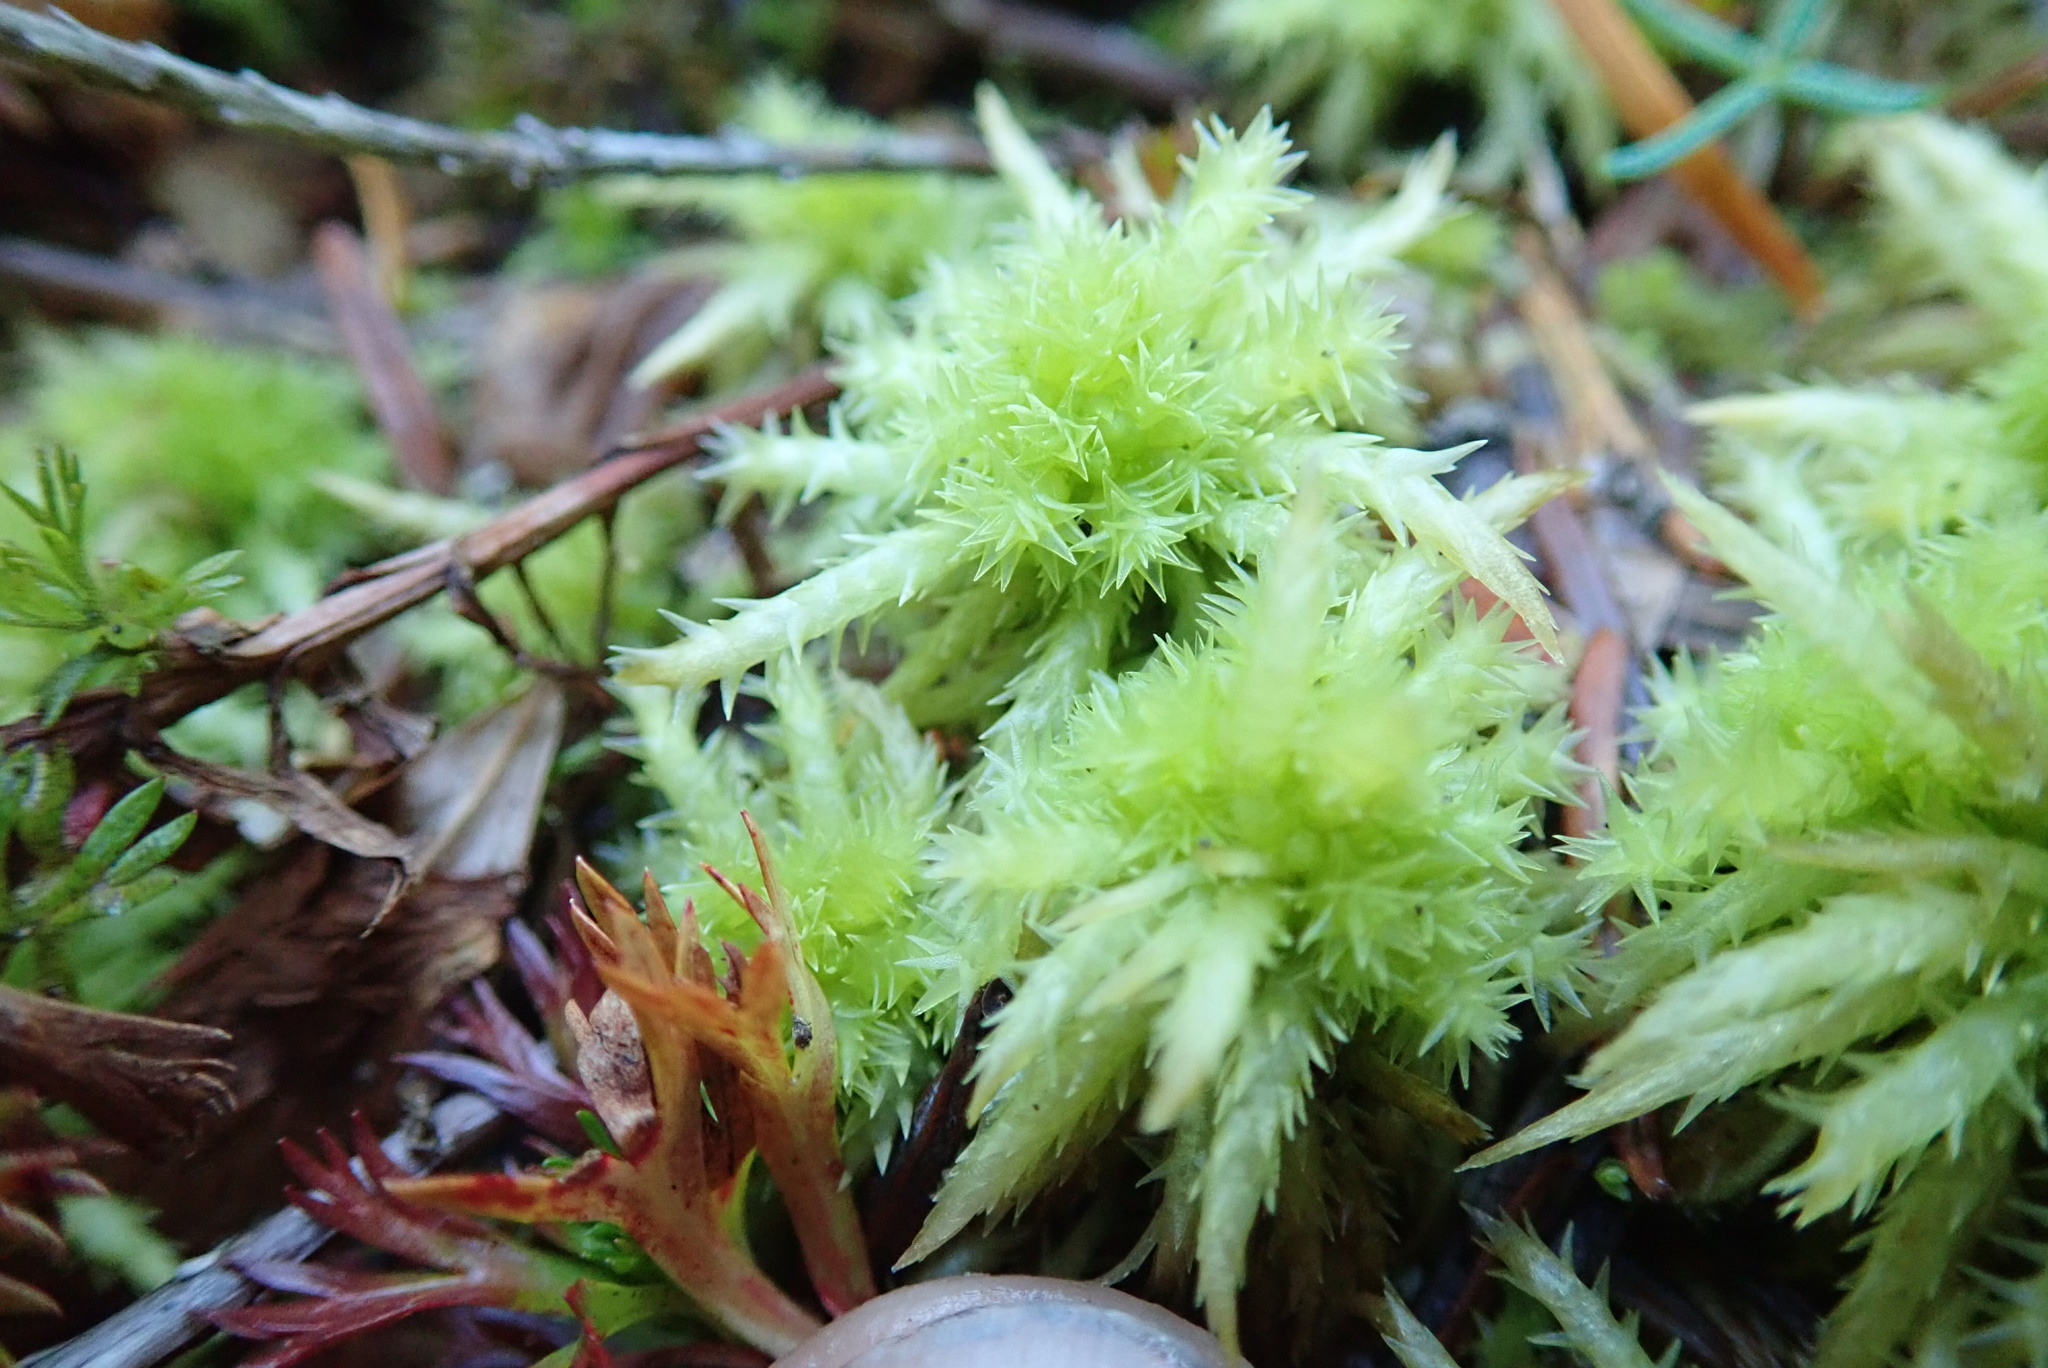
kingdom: Plantae
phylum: Bryophyta
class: Sphagnopsida
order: Sphagnales
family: Sphagnaceae
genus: Sphagnum
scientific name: Sphagnum squarrosum
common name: Shaggy peat moss
